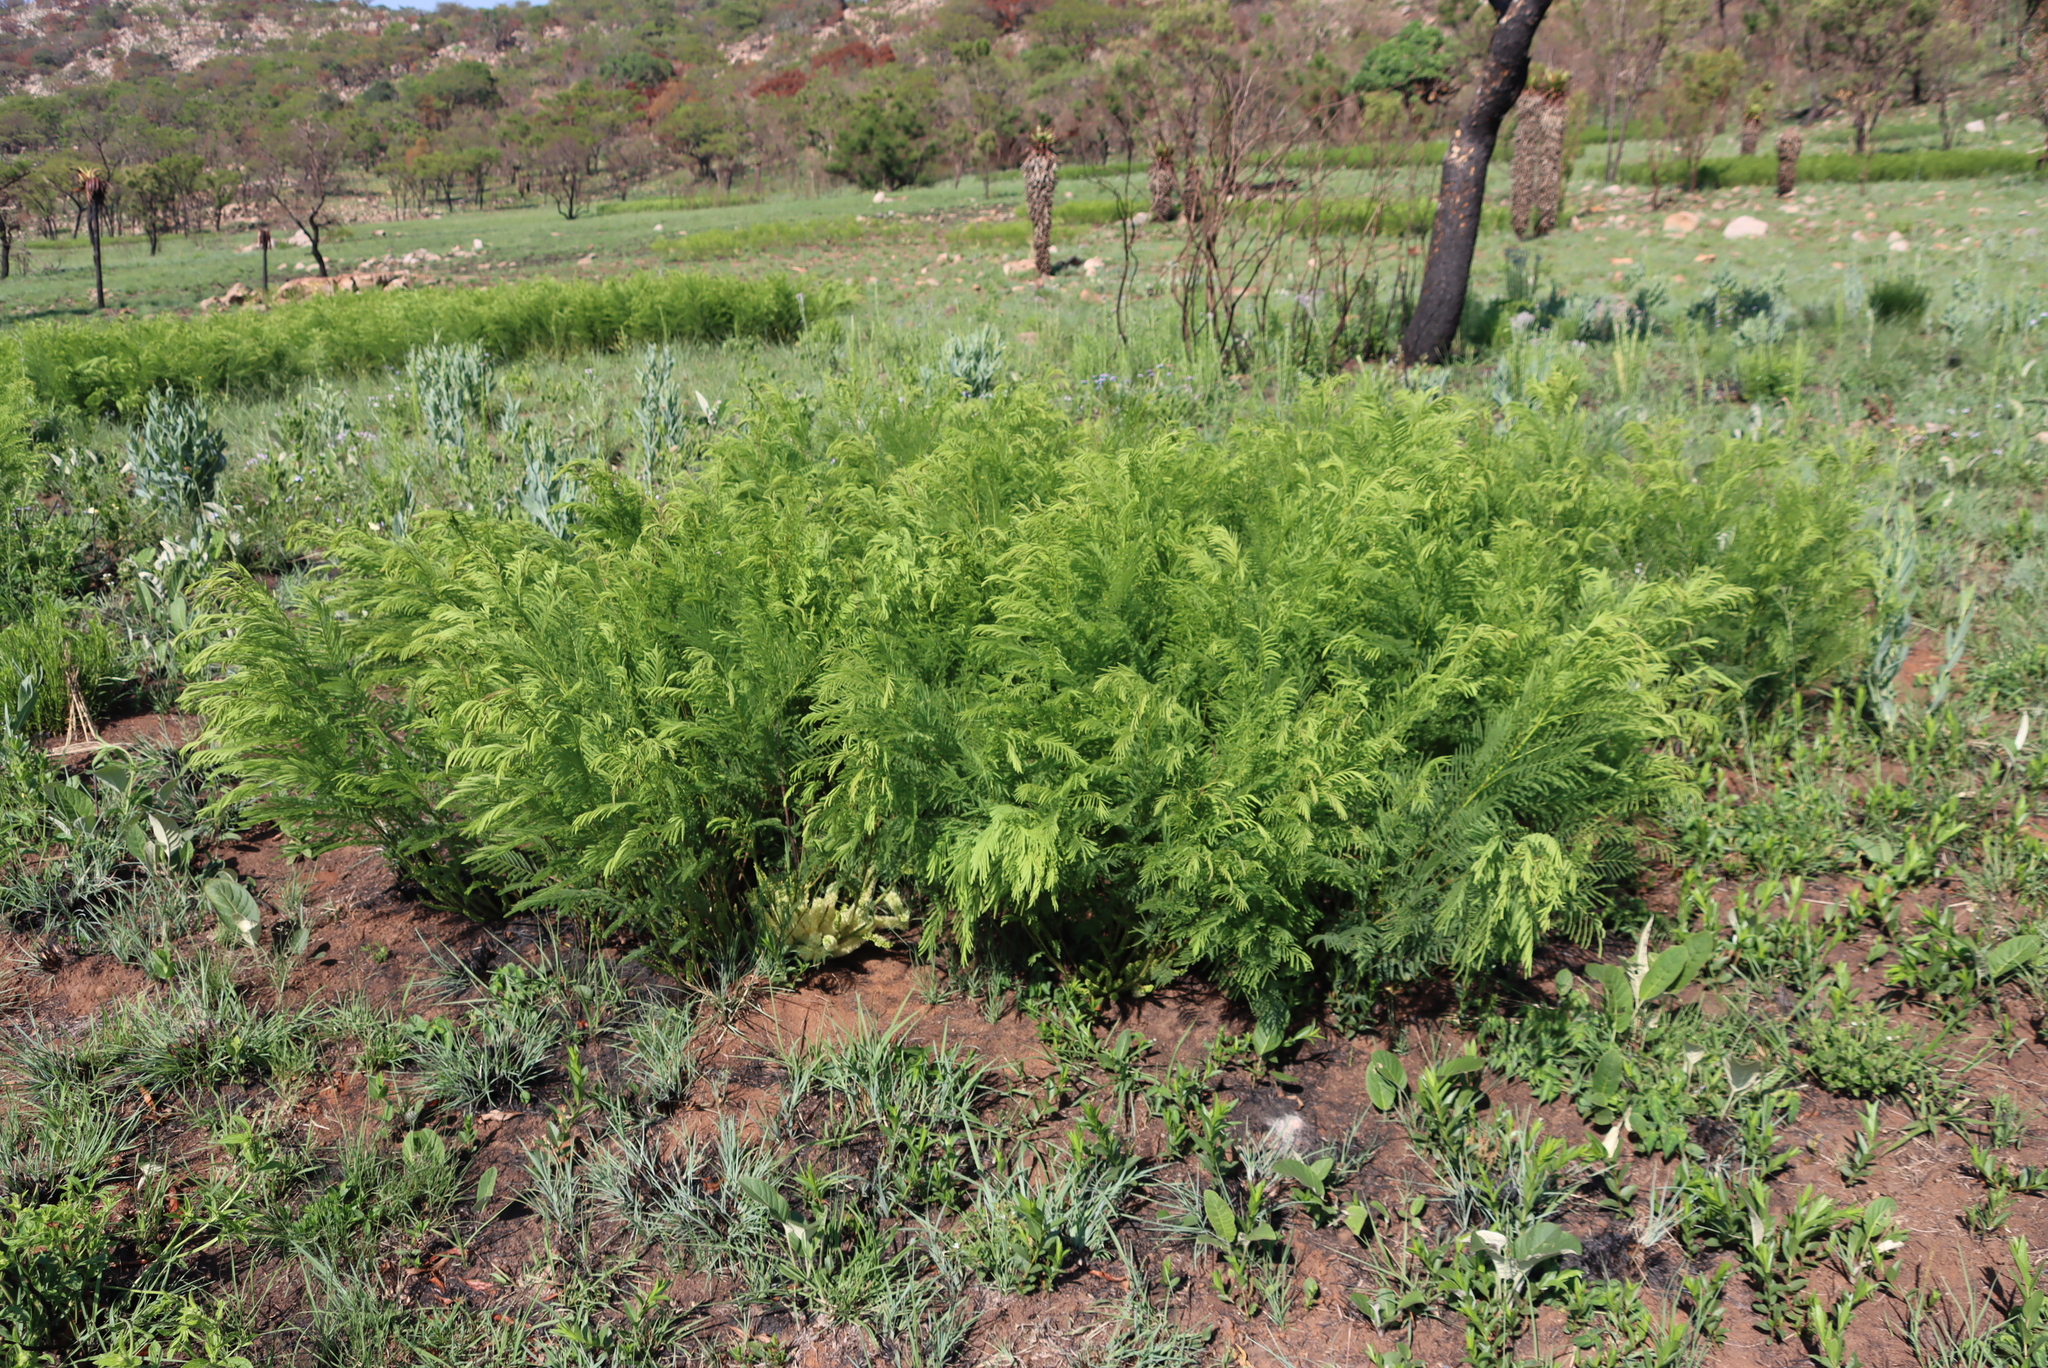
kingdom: Plantae
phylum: Tracheophyta
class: Magnoliopsida
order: Fabales
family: Fabaceae
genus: Elephantorrhiza
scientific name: Elephantorrhiza elephantina
